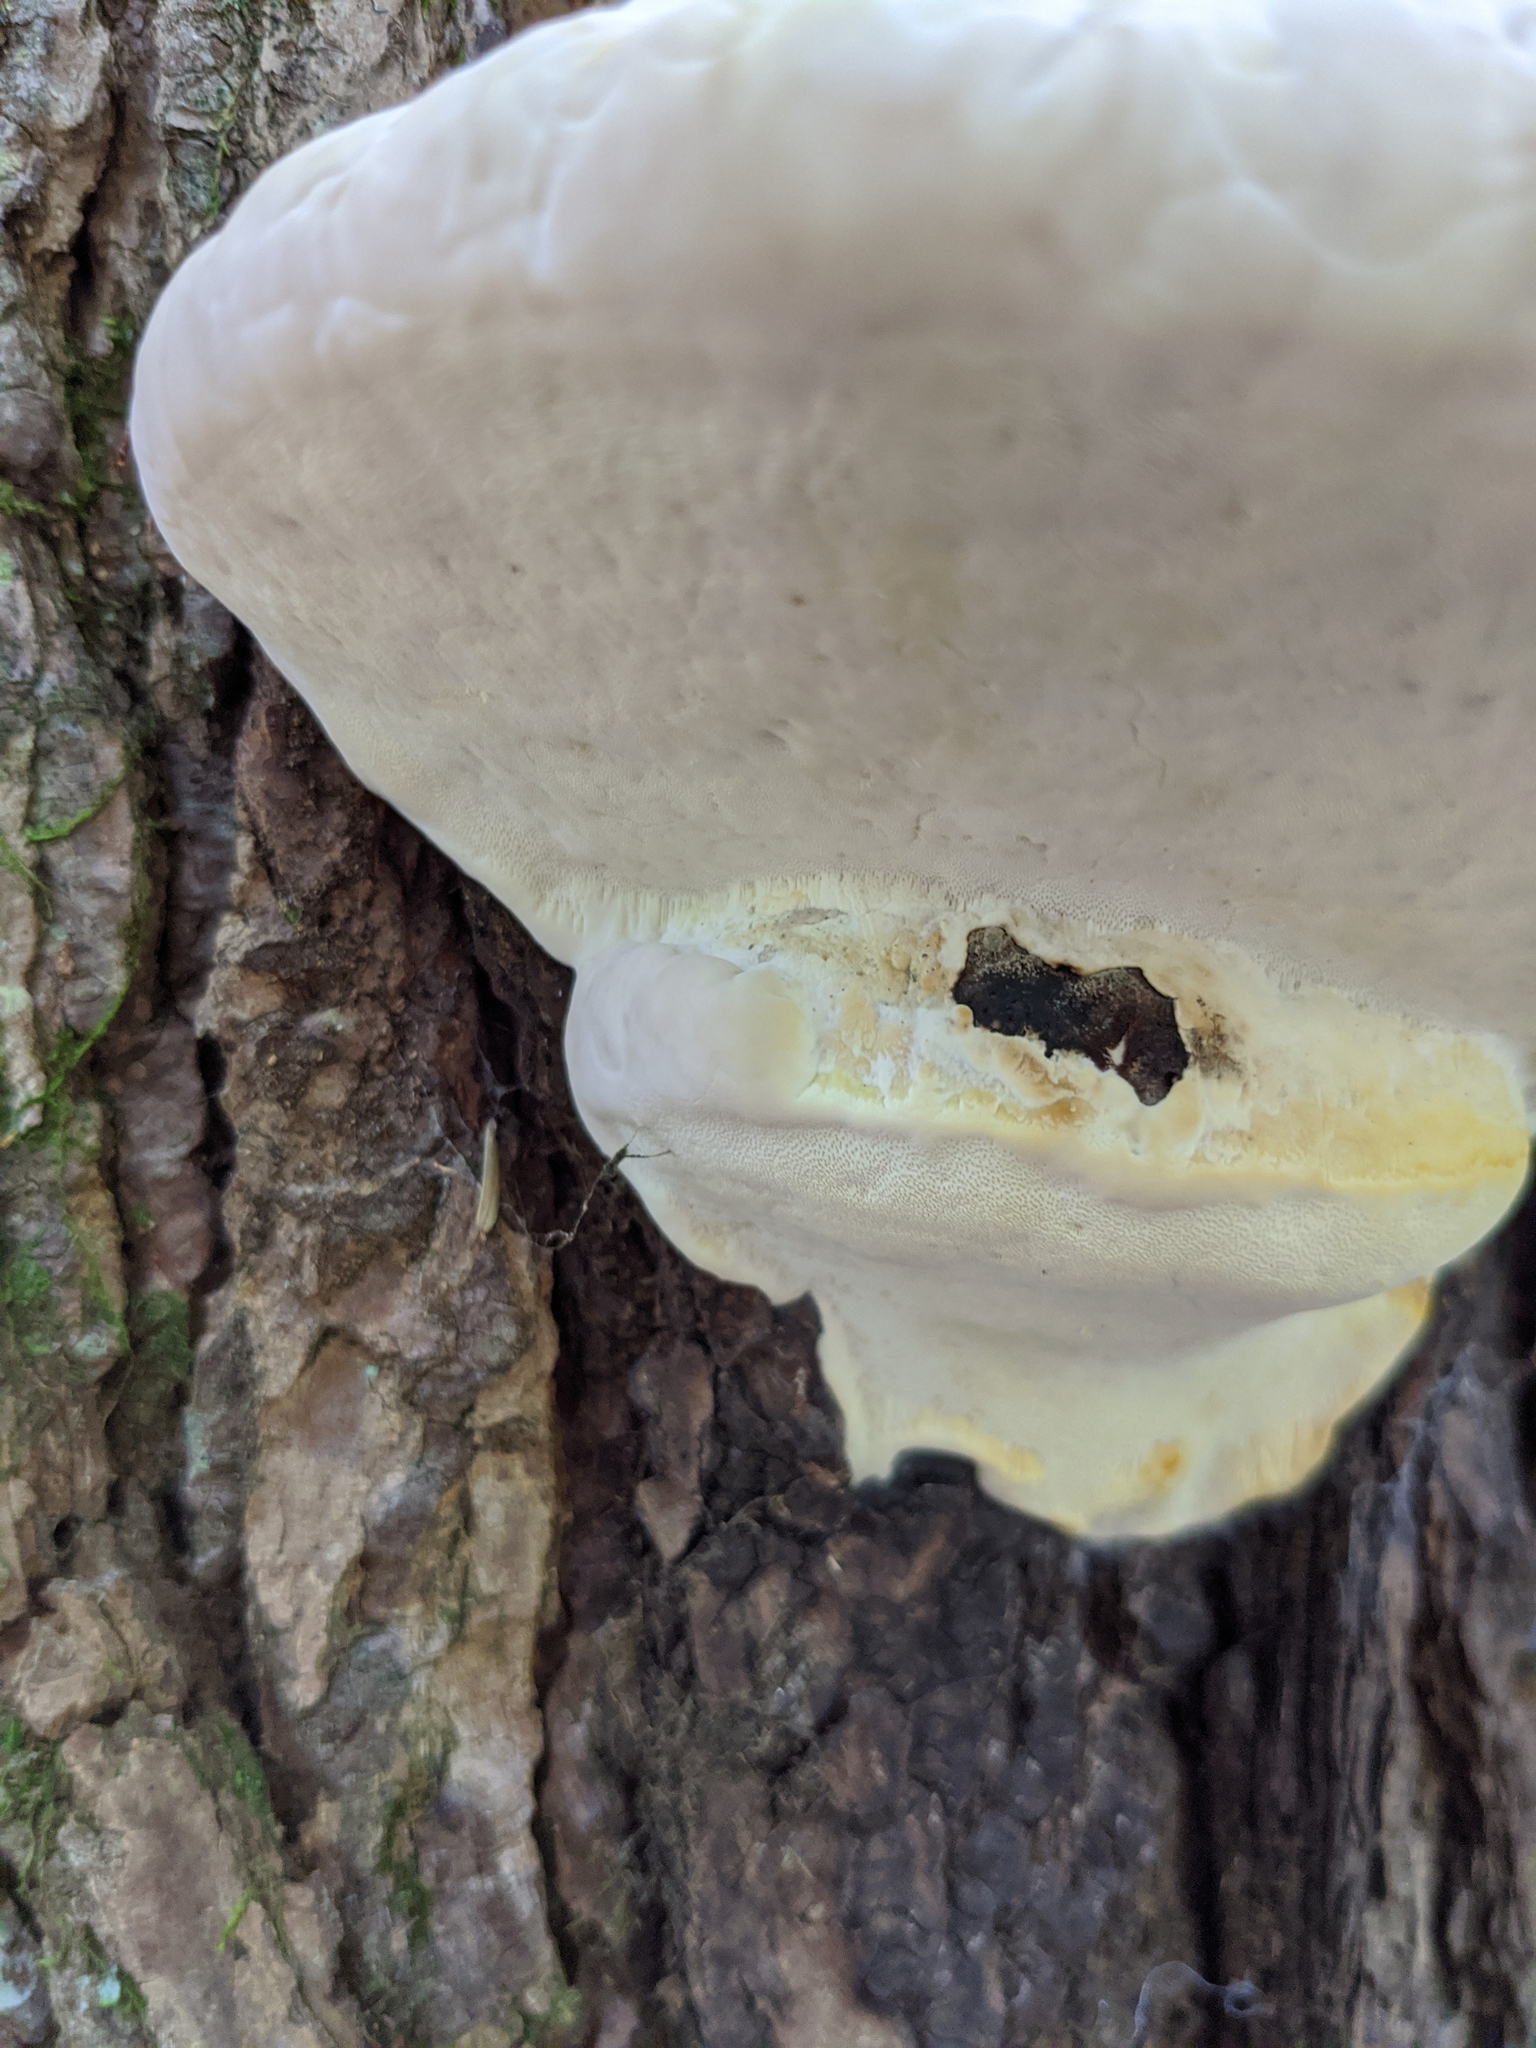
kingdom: Fungi
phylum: Basidiomycota
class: Agaricomycetes
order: Polyporales
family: Fomitopsidaceae
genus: Fomitopsis
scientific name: Fomitopsis ochracea
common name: American brown fomitopsis
